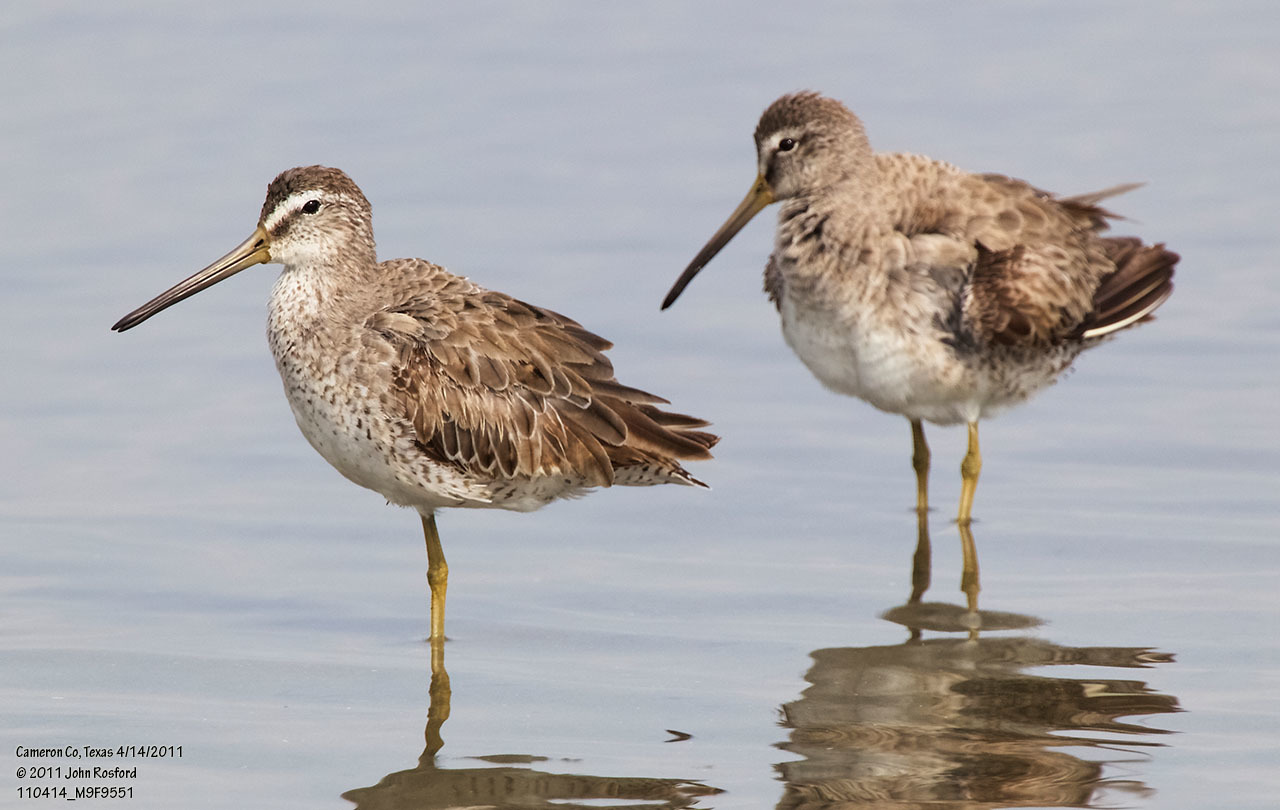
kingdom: Animalia
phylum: Chordata
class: Aves
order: Charadriiformes
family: Scolopacidae
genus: Limnodromus
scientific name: Limnodromus griseus
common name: Short-billed dowitcher
